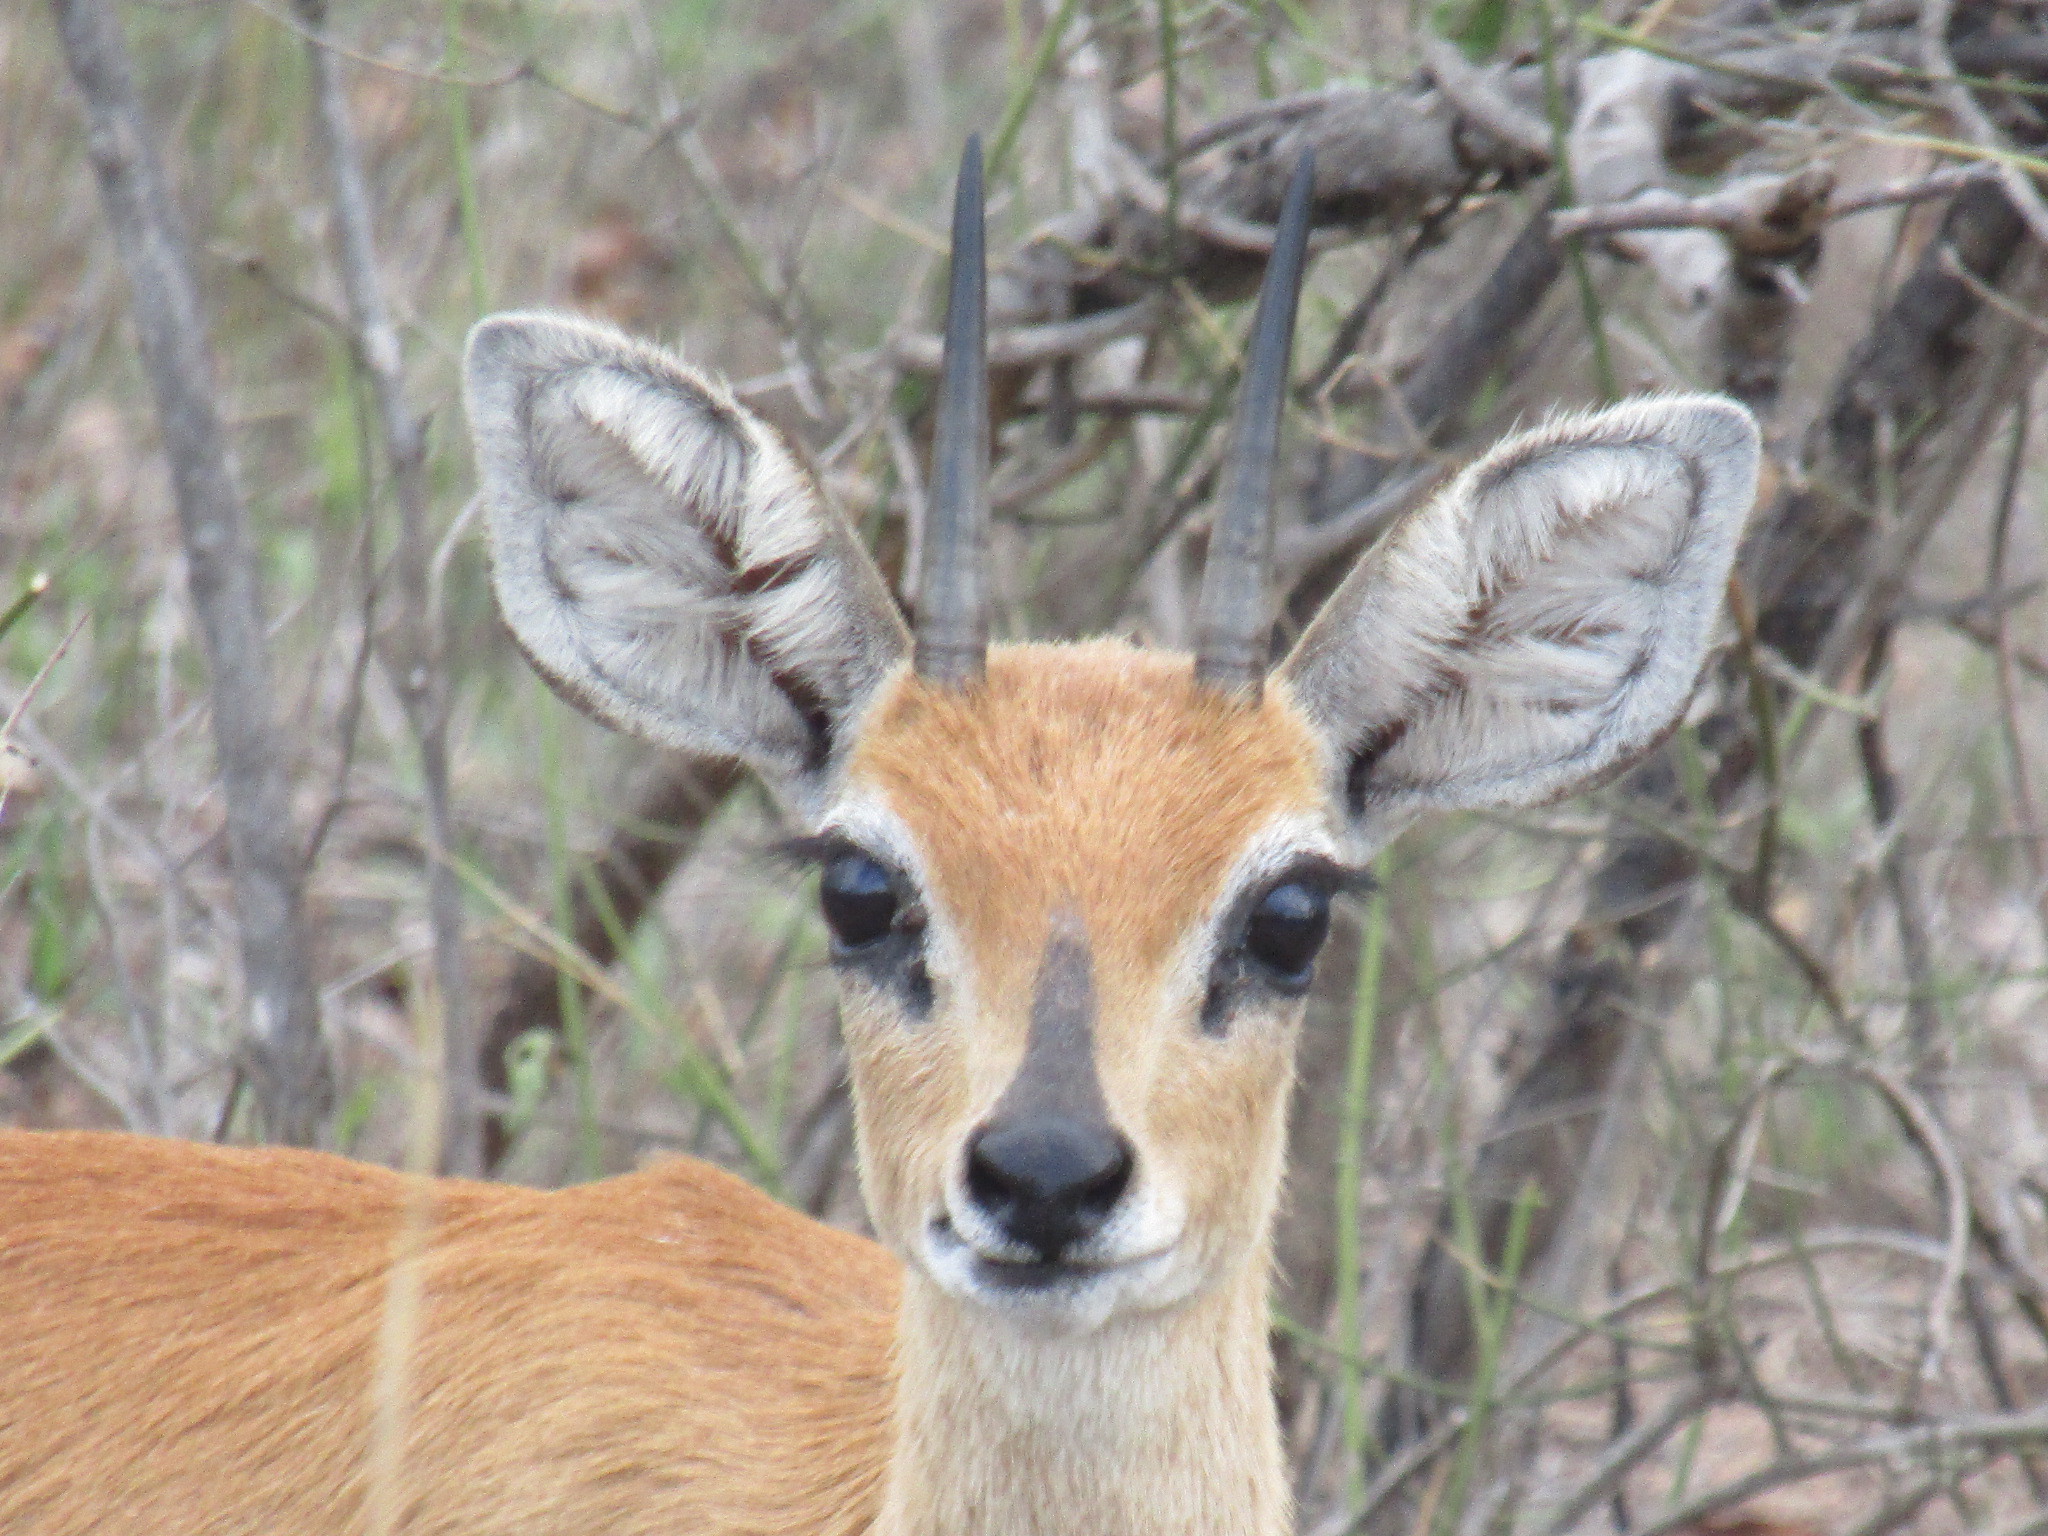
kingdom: Animalia
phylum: Chordata
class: Mammalia
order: Artiodactyla
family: Bovidae
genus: Raphicerus
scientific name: Raphicerus campestris
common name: Steenbok
